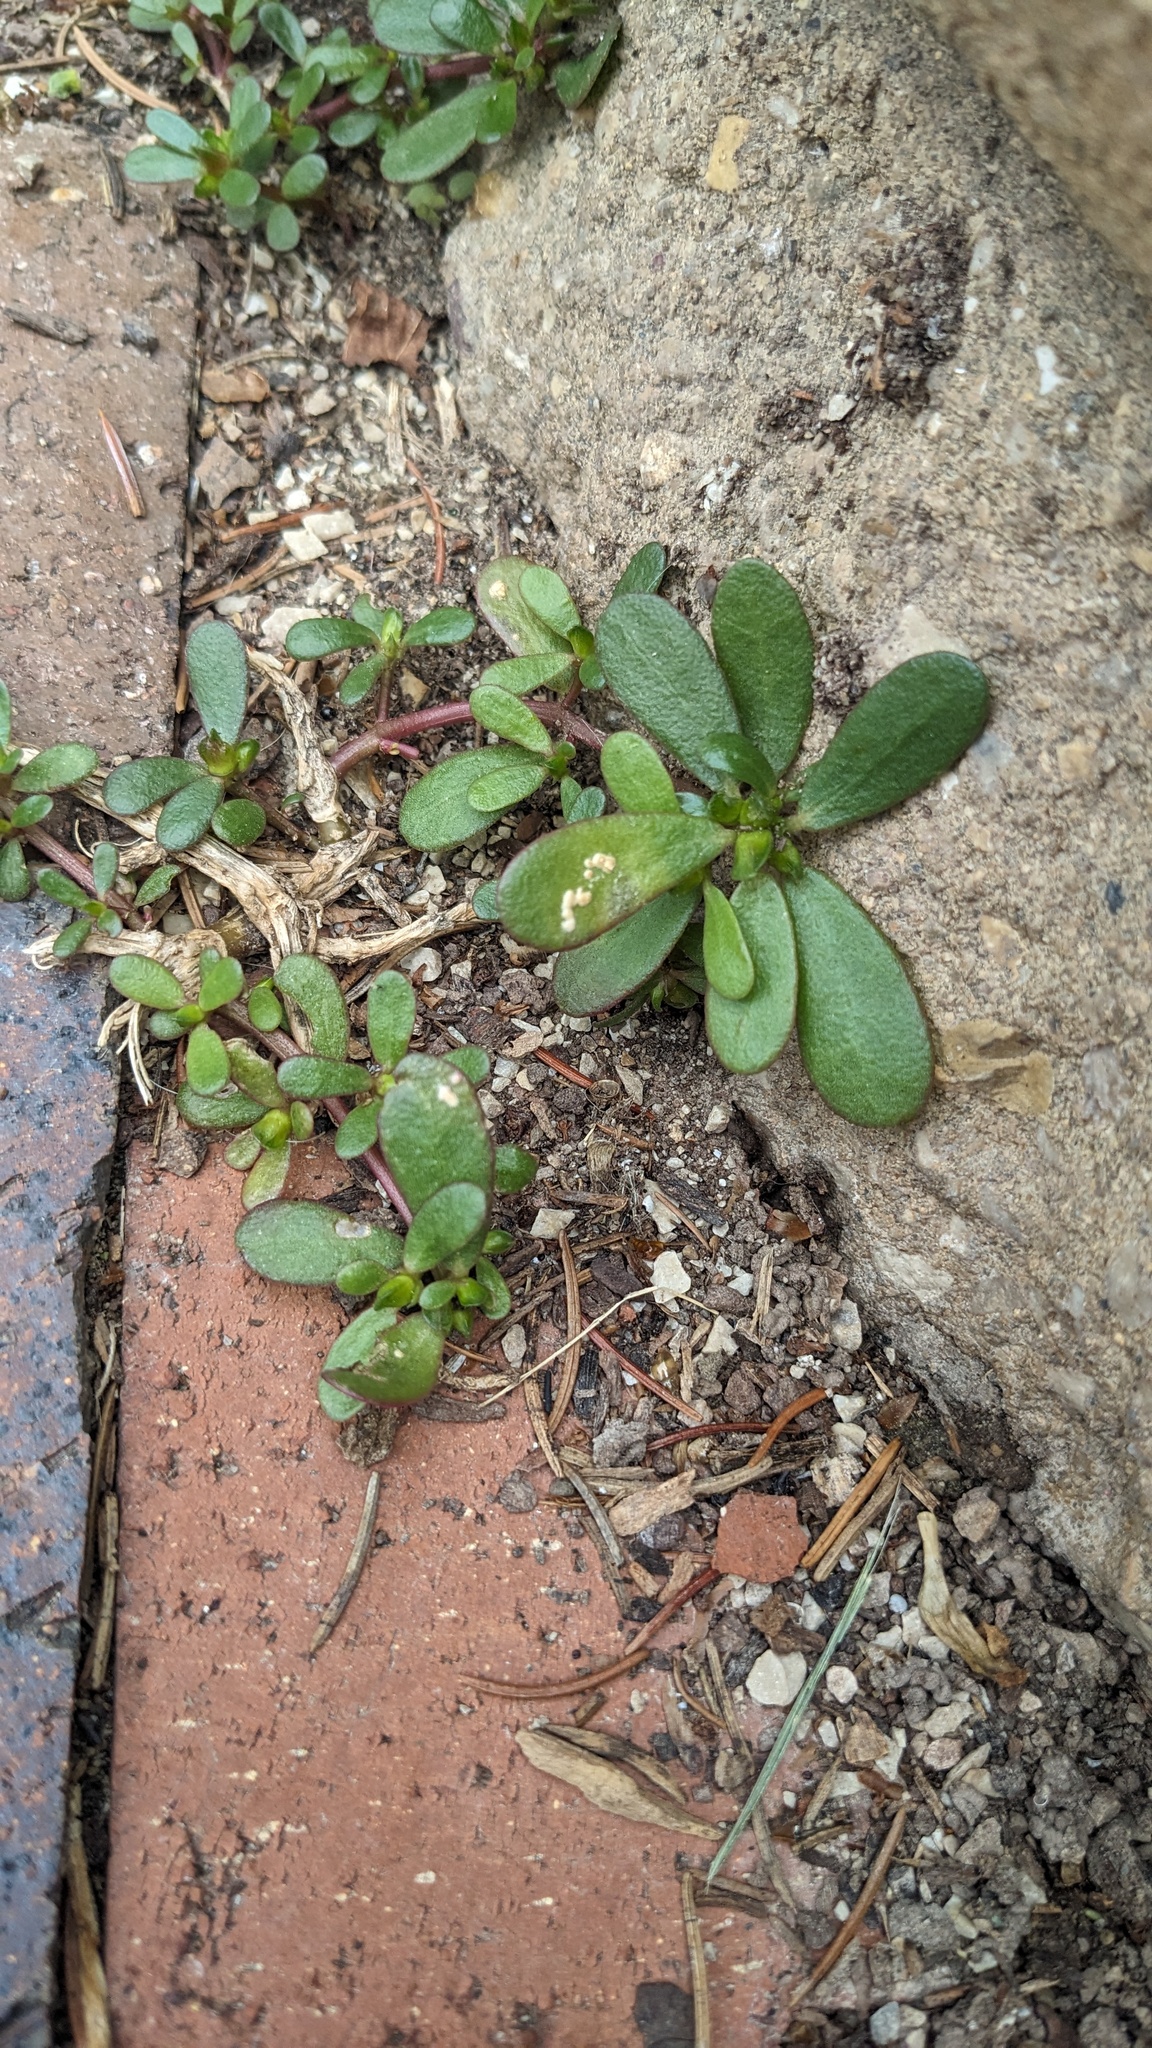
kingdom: Chromista
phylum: Oomycota
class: Peronosporea
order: Albuginales
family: Albuginaceae
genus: Wilsoniana
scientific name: Wilsoniana portulacae
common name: Purslane white rust
